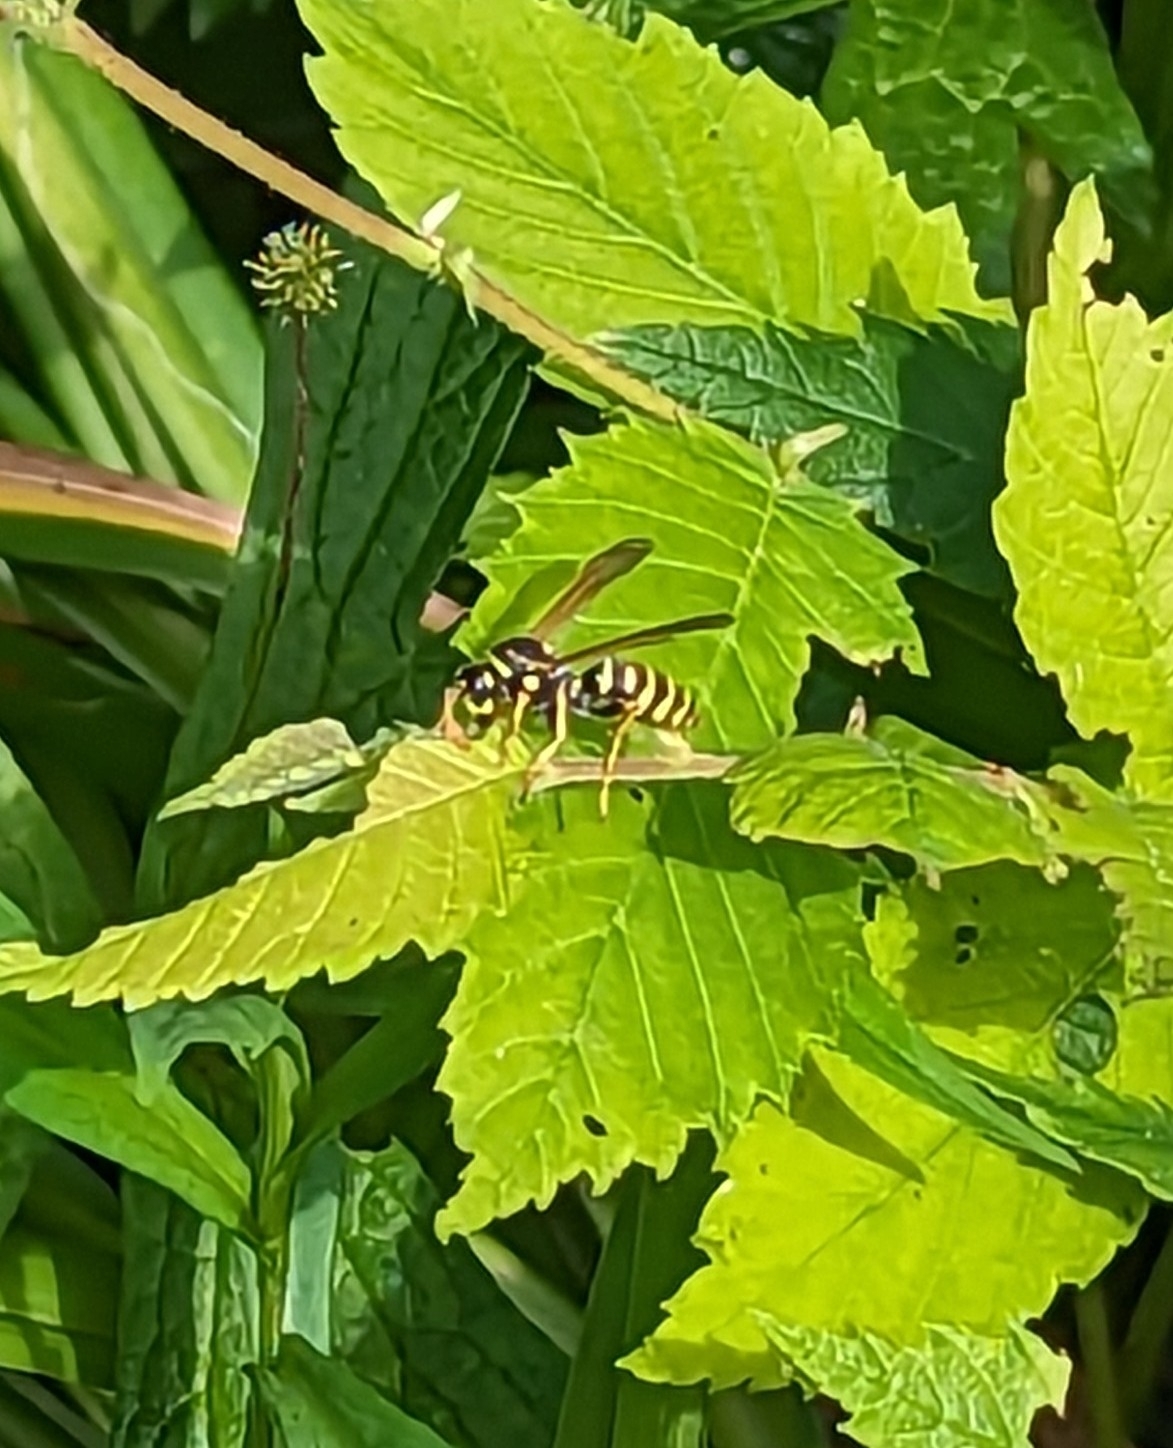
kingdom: Animalia
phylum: Arthropoda
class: Insecta
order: Hymenoptera
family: Eumenidae
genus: Polistes
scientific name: Polistes dominula
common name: Paper wasp
